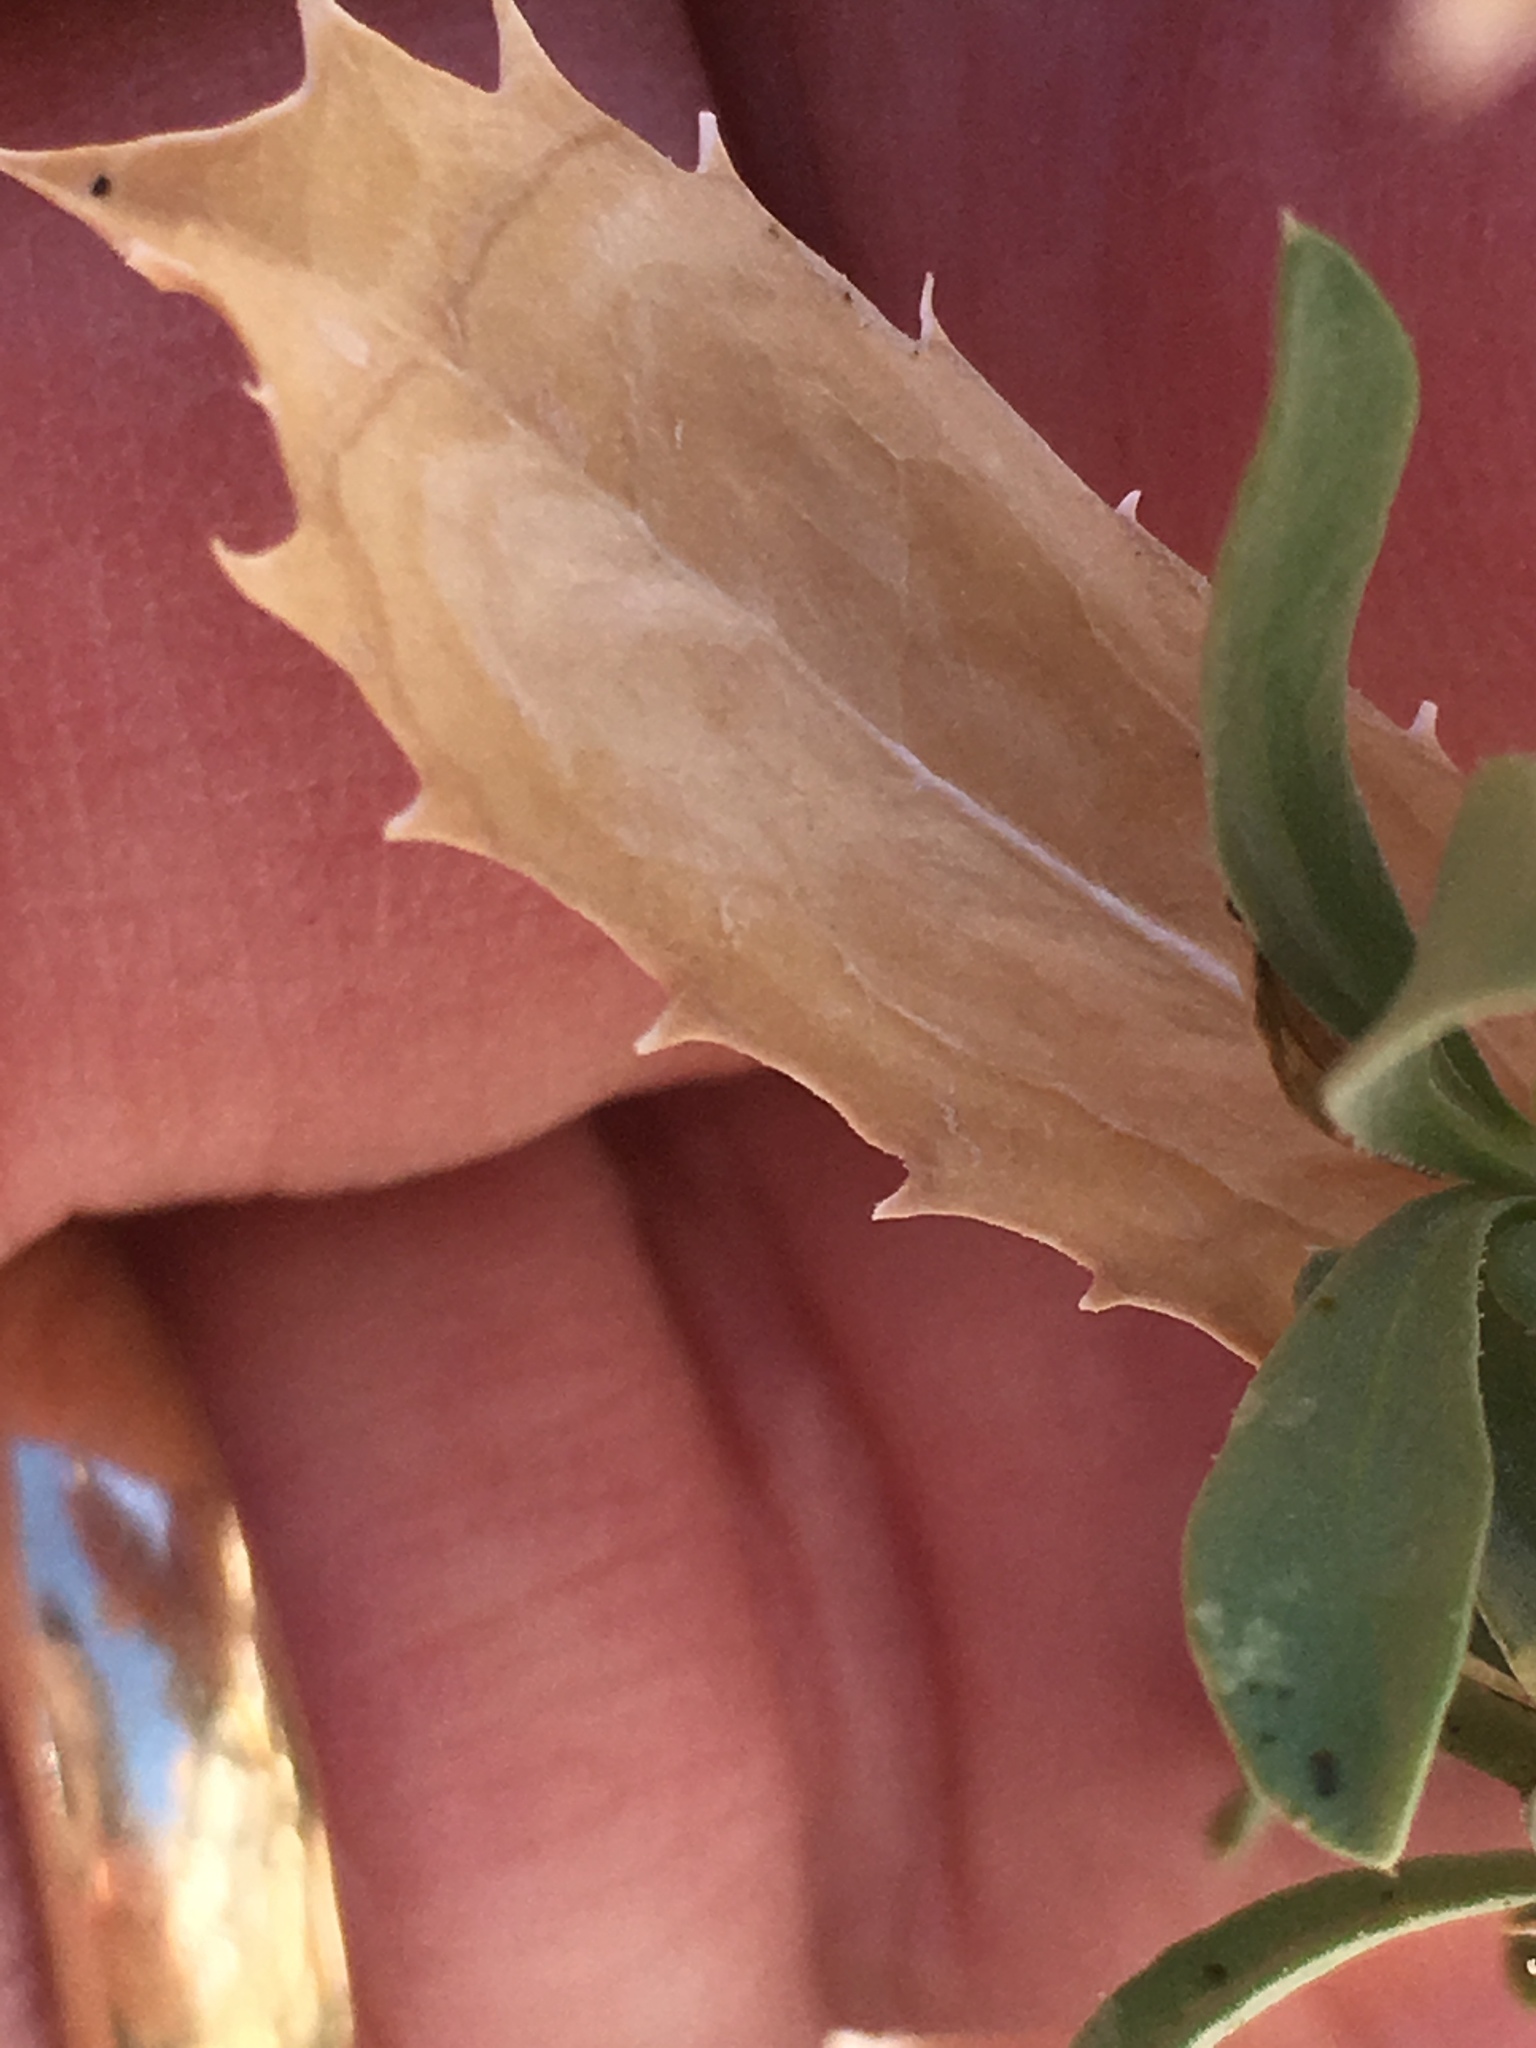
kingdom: Plantae
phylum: Tracheophyta
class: Magnoliopsida
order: Asterales
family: Asteraceae
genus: Xylorhiza
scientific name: Xylorhiza orcuttii
